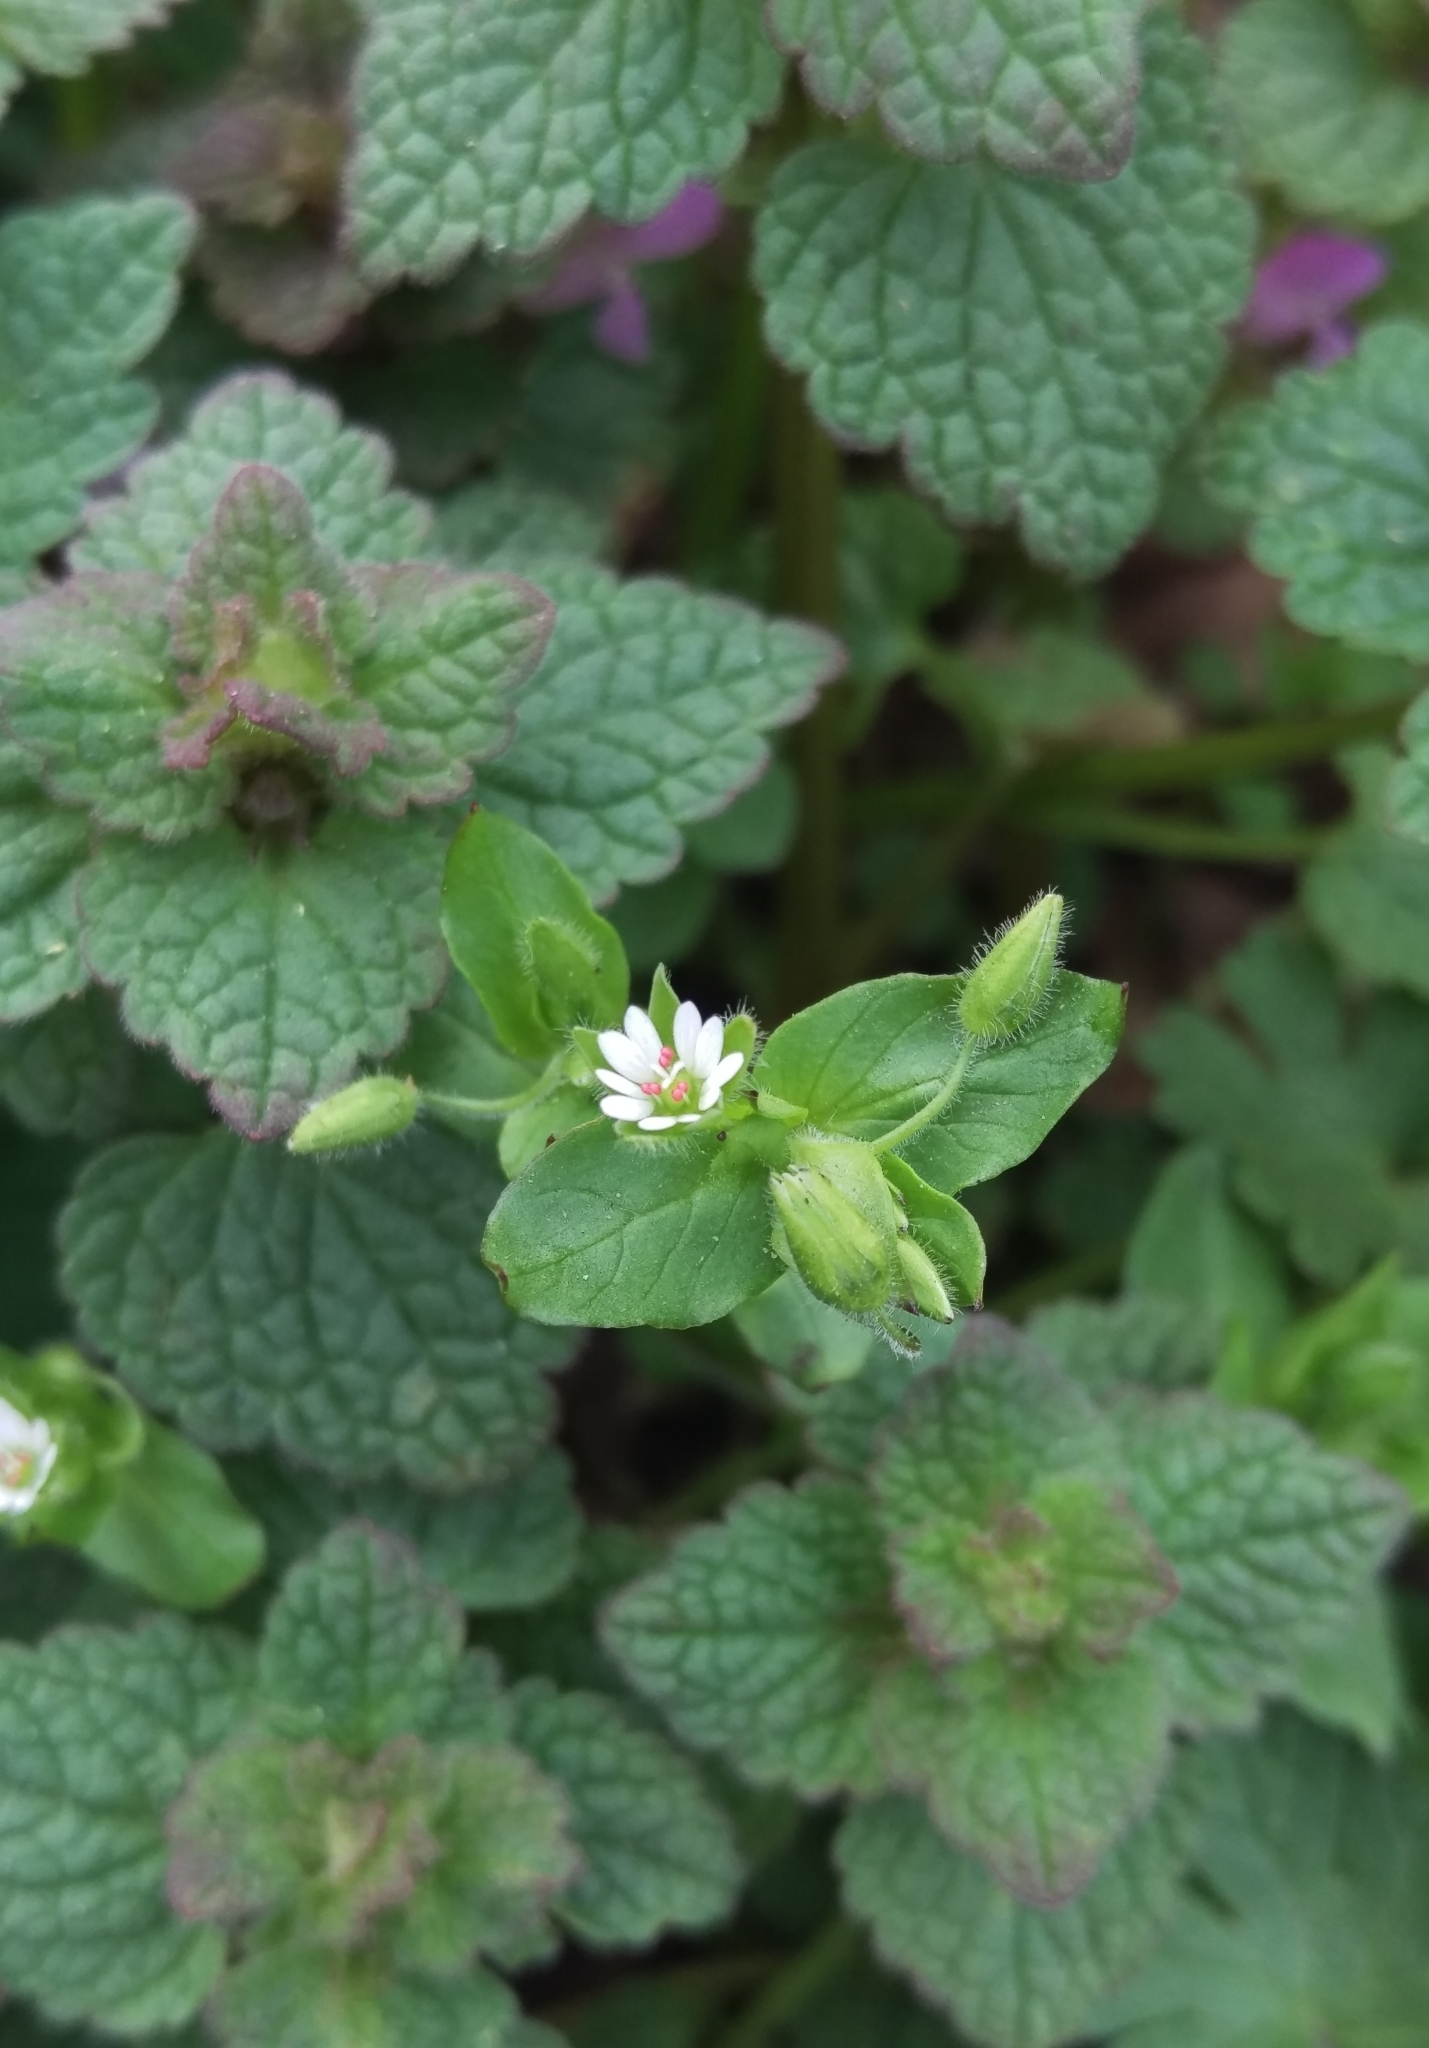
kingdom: Plantae
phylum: Tracheophyta
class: Magnoliopsida
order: Caryophyllales
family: Caryophyllaceae
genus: Stellaria
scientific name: Stellaria media
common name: Common chickweed
